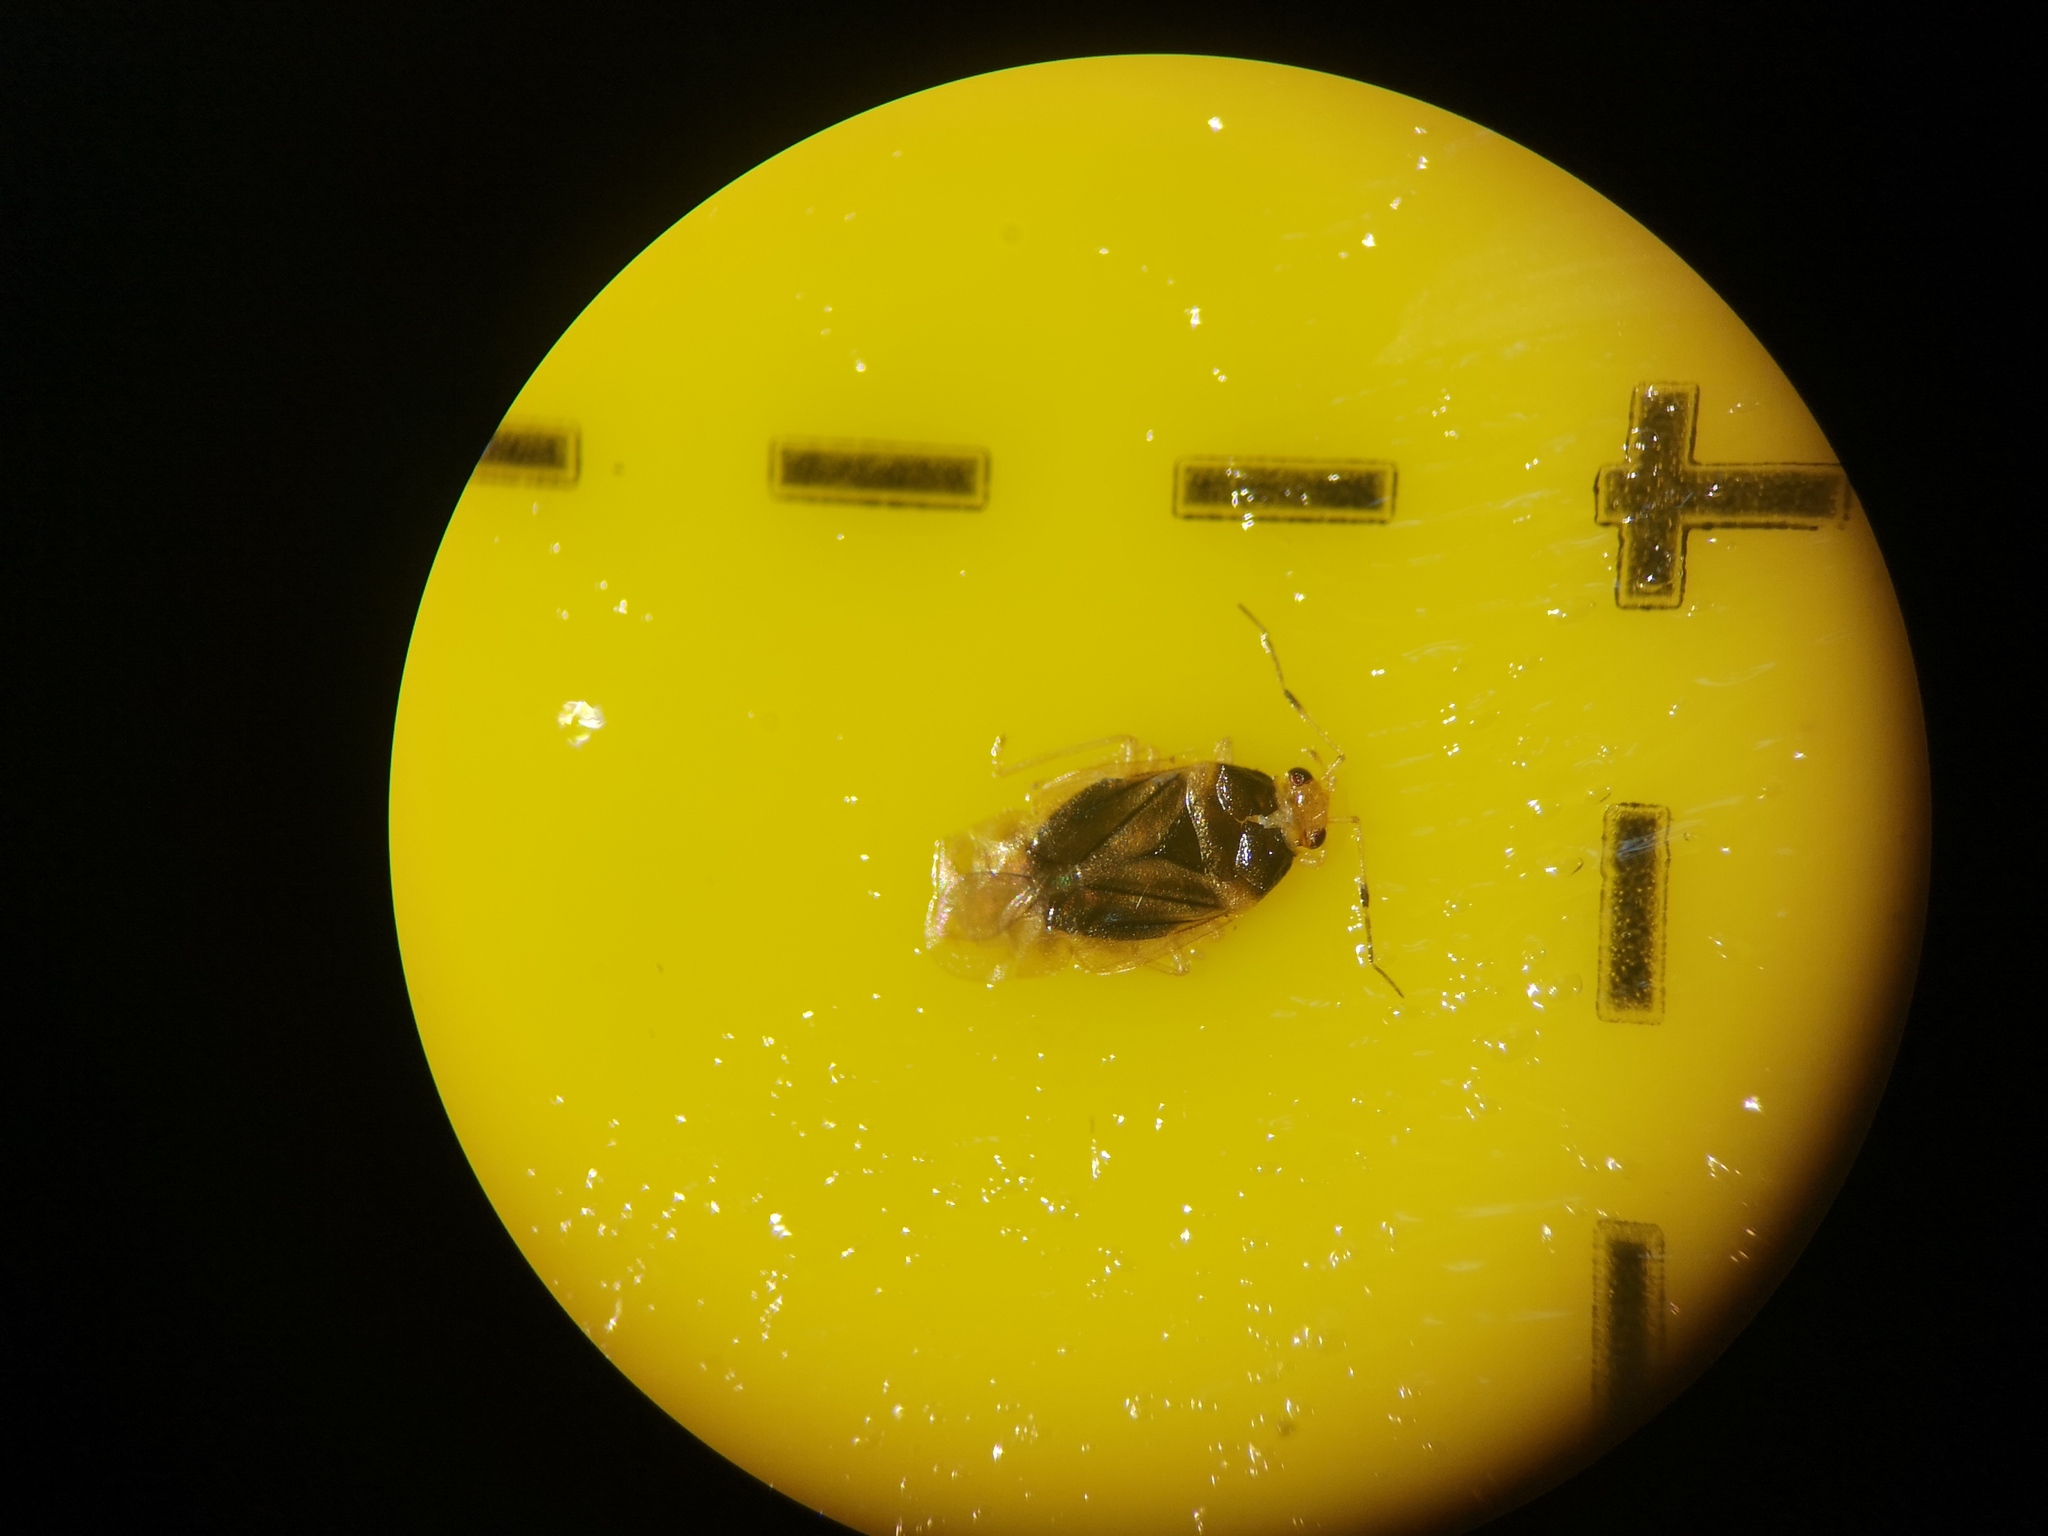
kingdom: Animalia
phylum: Arthropoda
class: Insecta
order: Hemiptera
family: Miridae
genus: Monalocoris
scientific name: Monalocoris filicis
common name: Bracken bug
